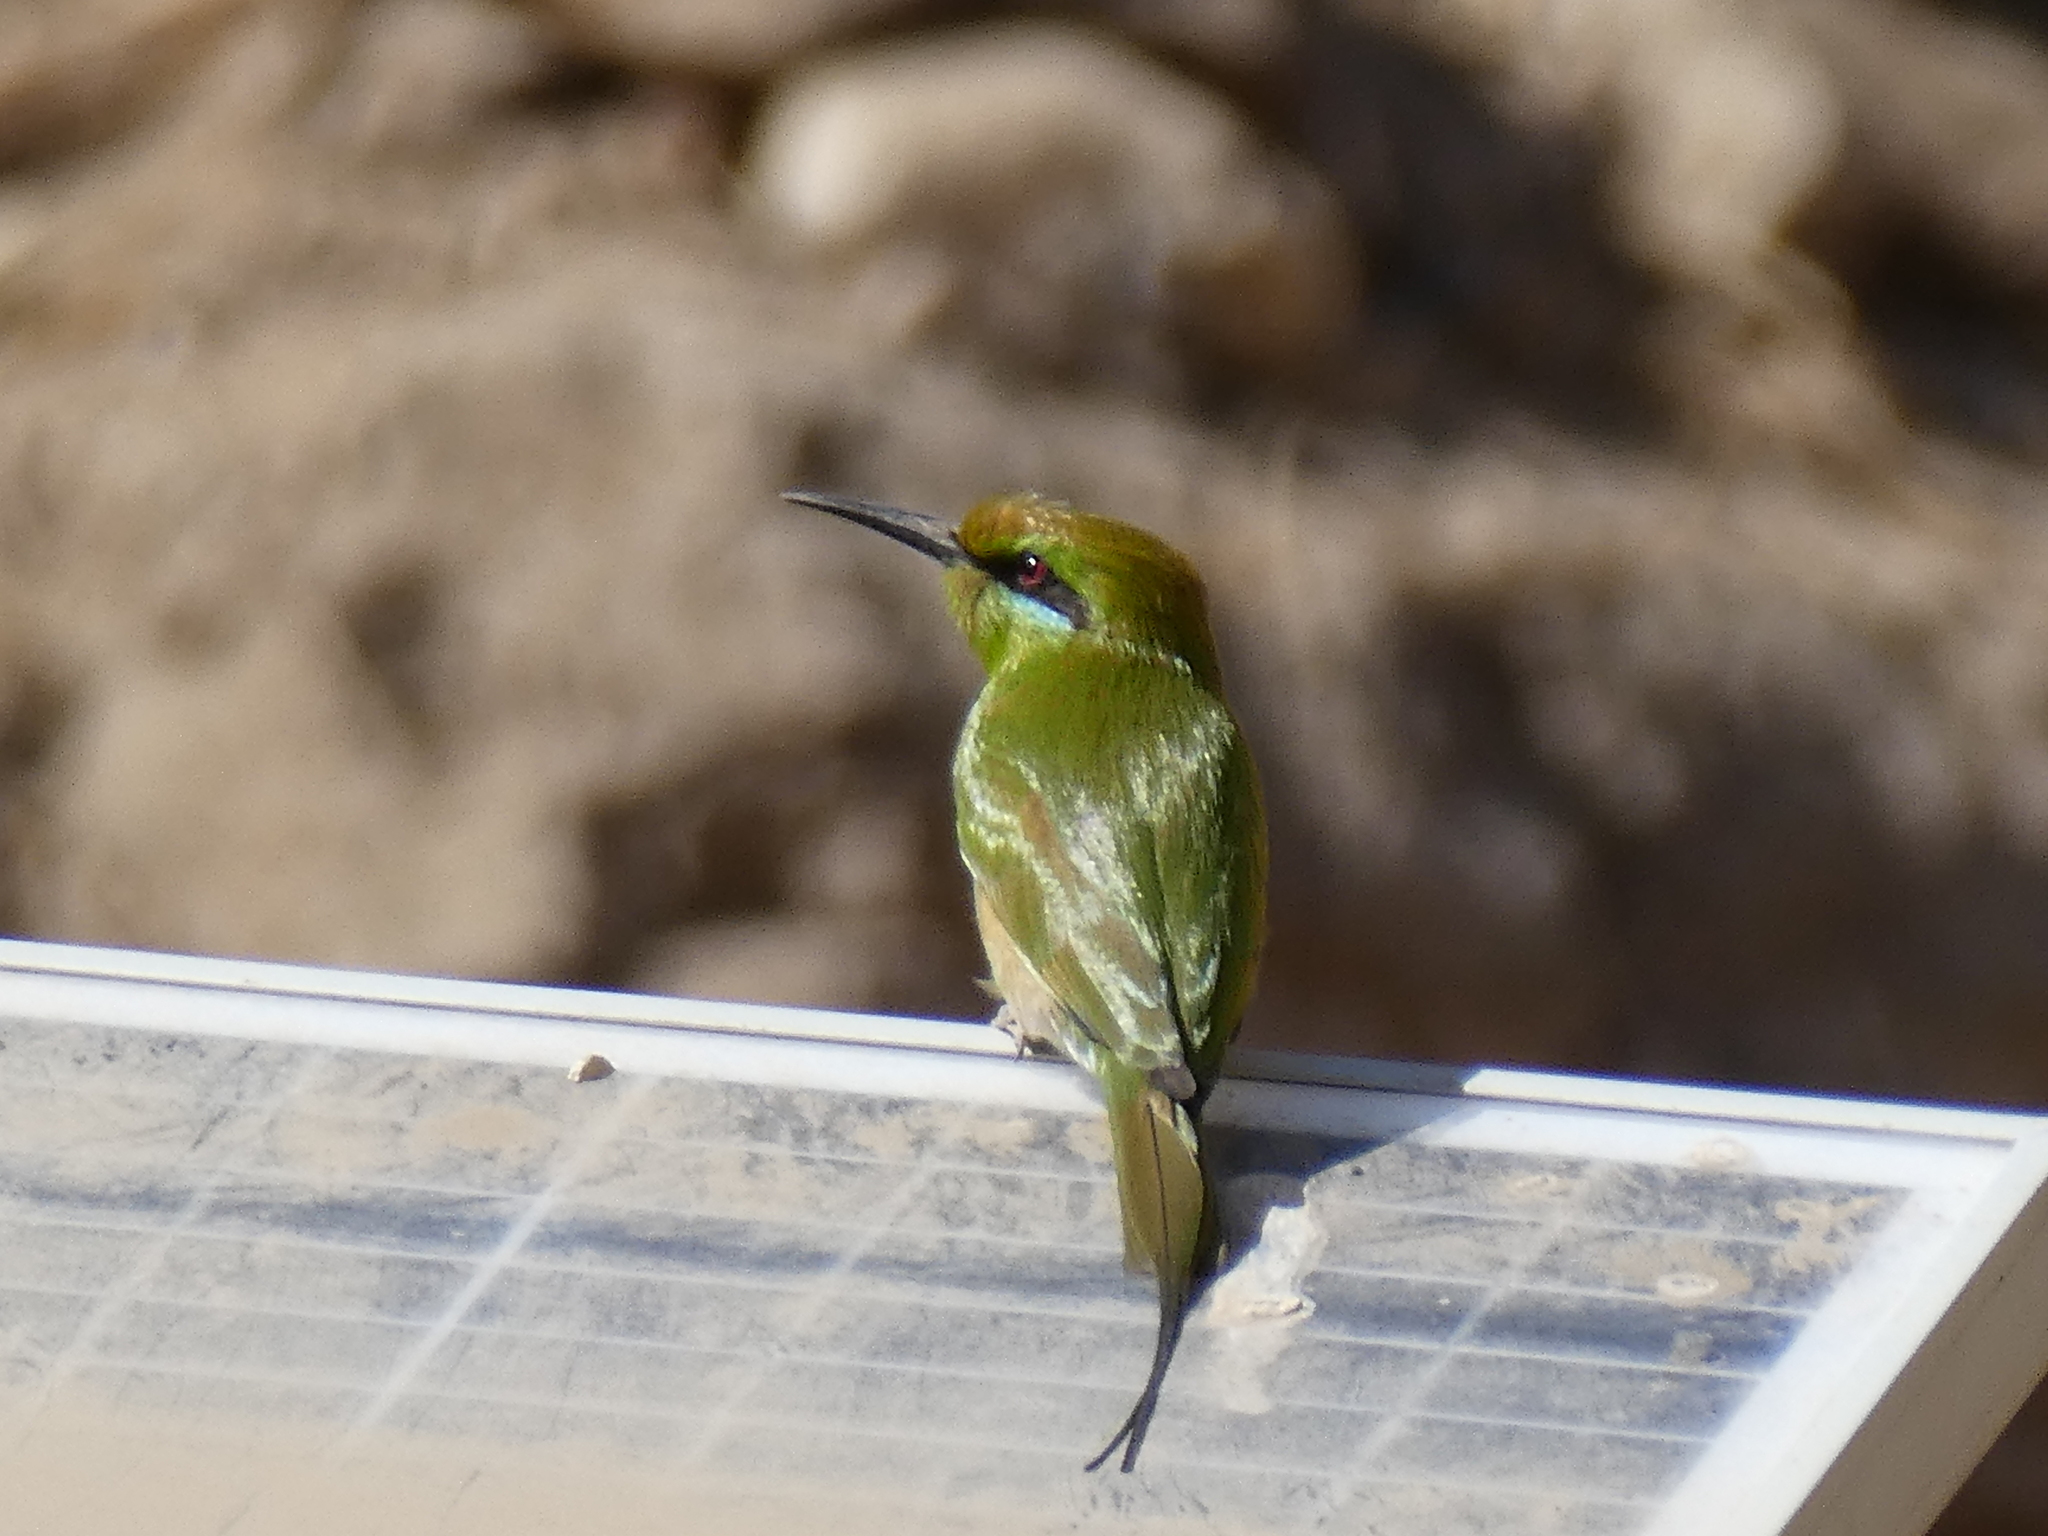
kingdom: Animalia
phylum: Chordata
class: Aves
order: Coraciiformes
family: Meropidae
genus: Merops
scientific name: Merops viridissimus
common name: African green bee-eater
